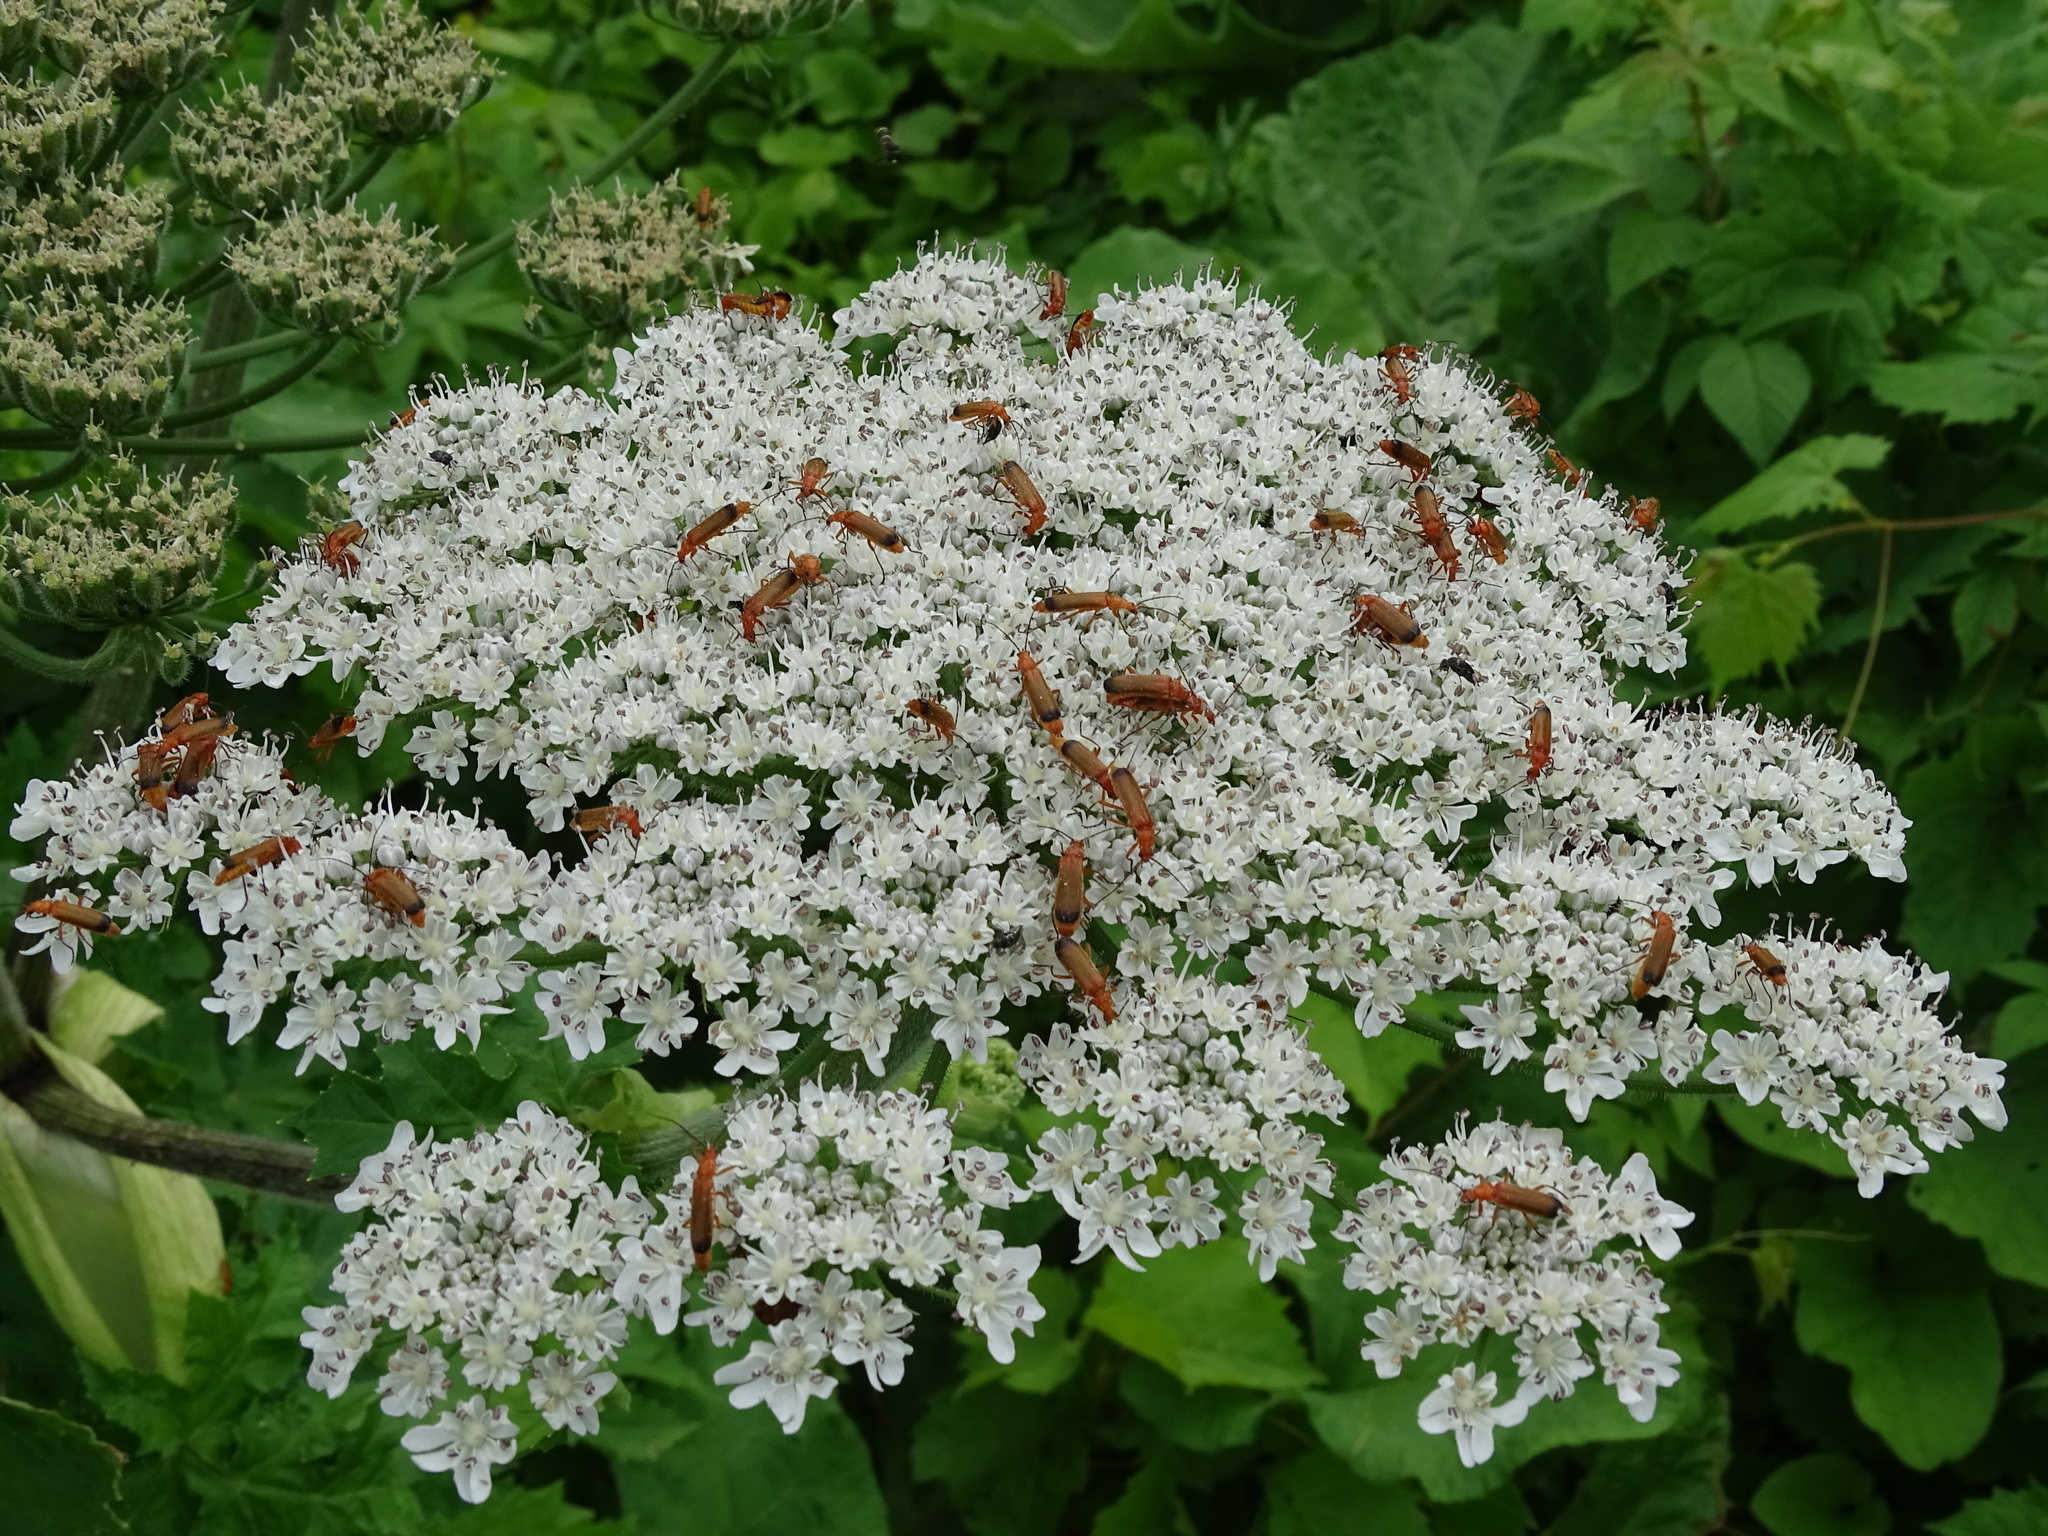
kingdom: Animalia
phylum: Arthropoda
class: Insecta
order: Coleoptera
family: Cantharidae
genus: Rhagonycha
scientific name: Rhagonycha fulva
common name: Common red soldier beetle
